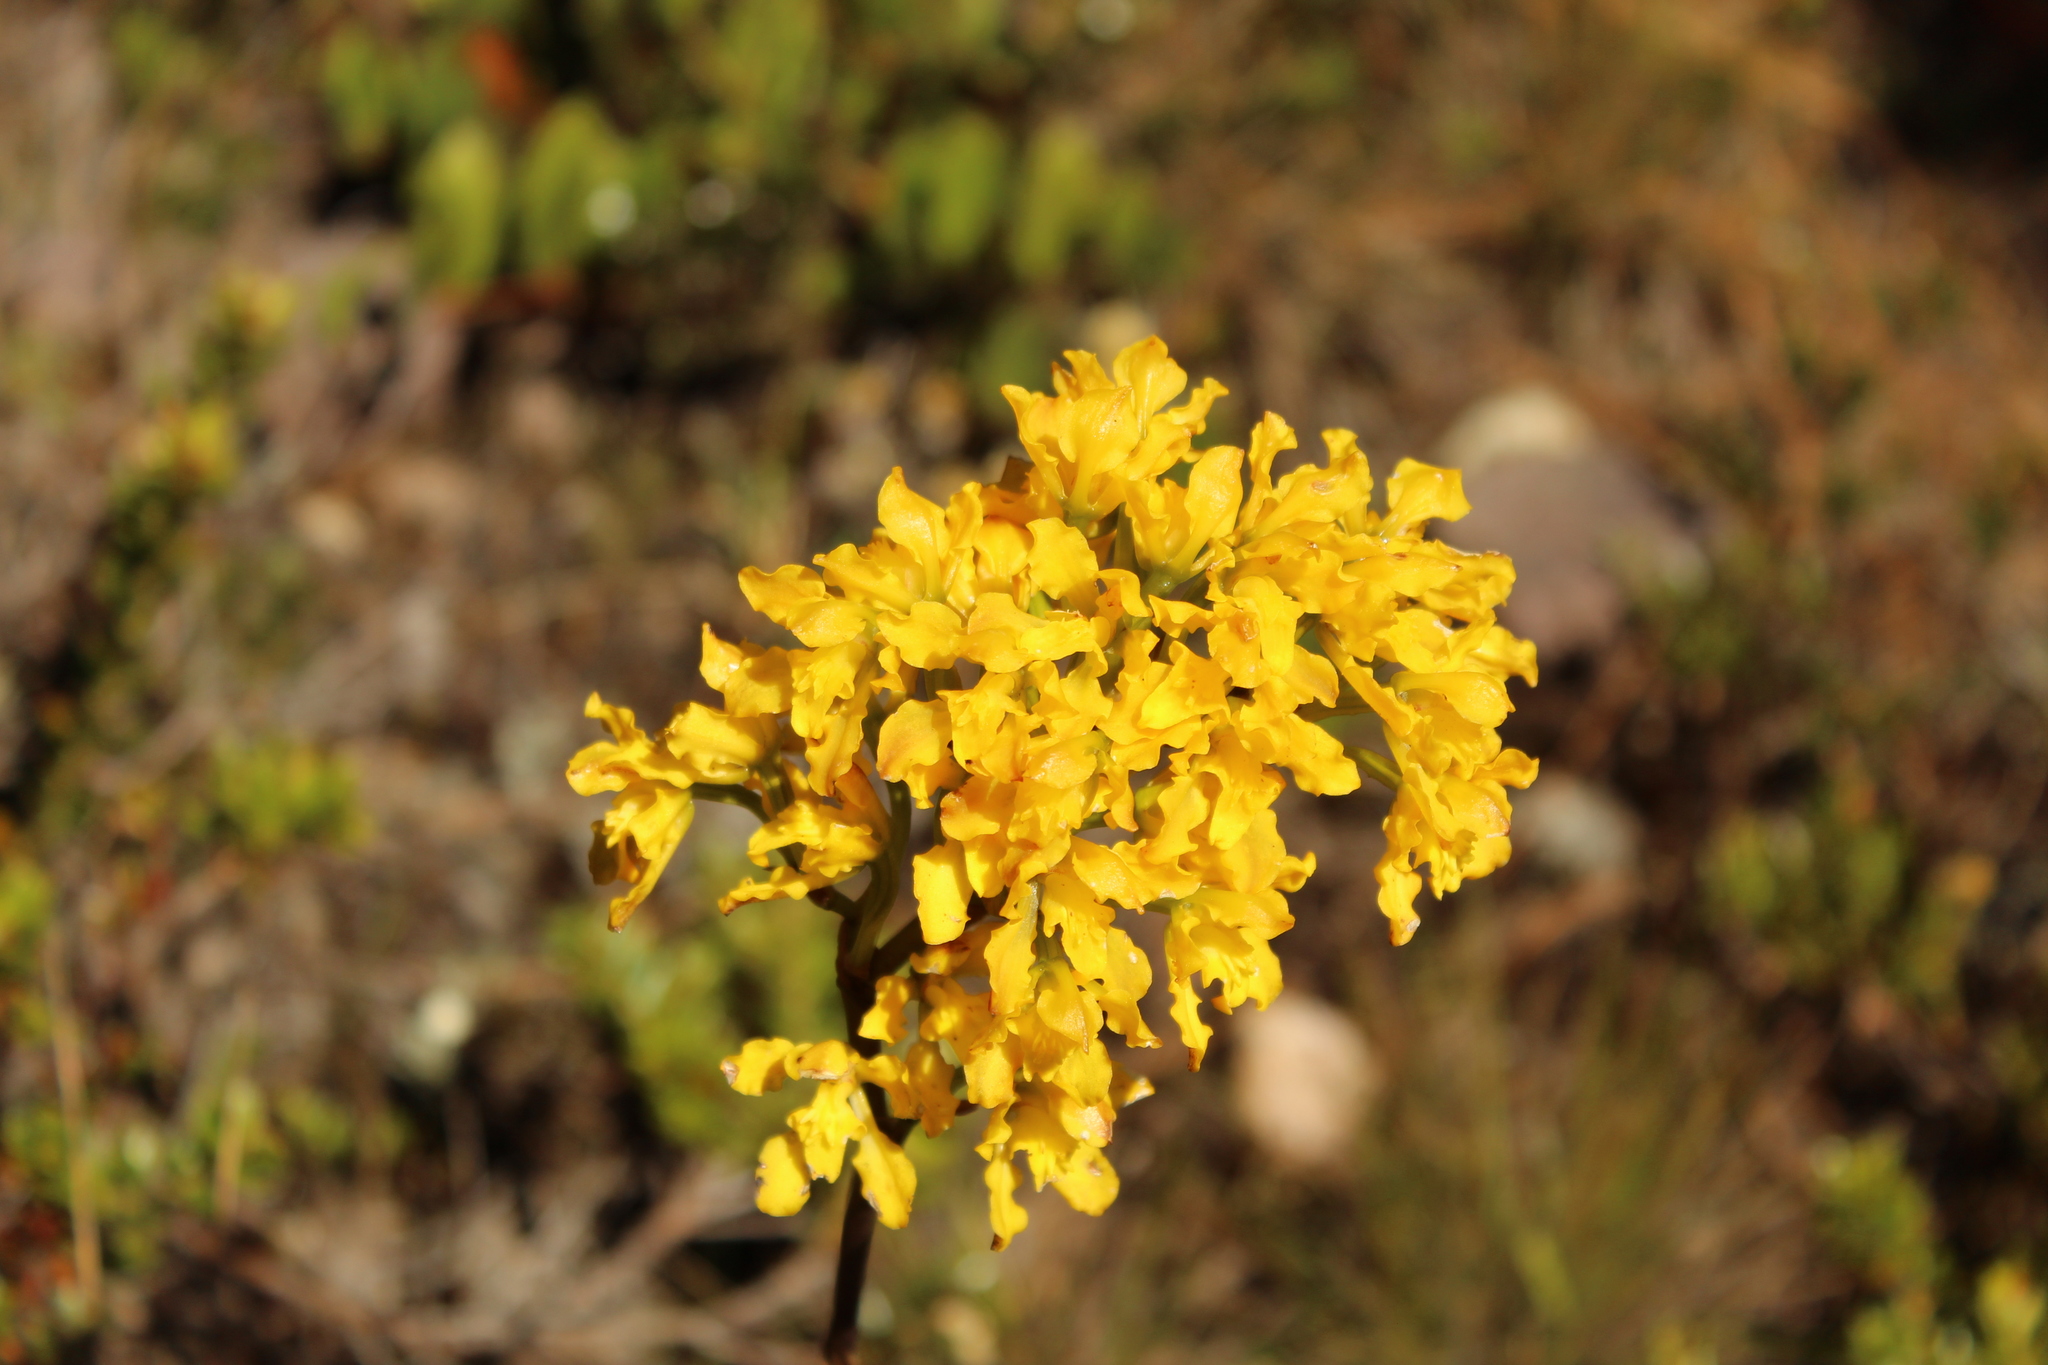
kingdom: Plantae
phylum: Tracheophyta
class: Liliopsida
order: Asparagales
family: Orchidaceae
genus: Cyrtochilum
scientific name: Cyrtochilum revolutum
